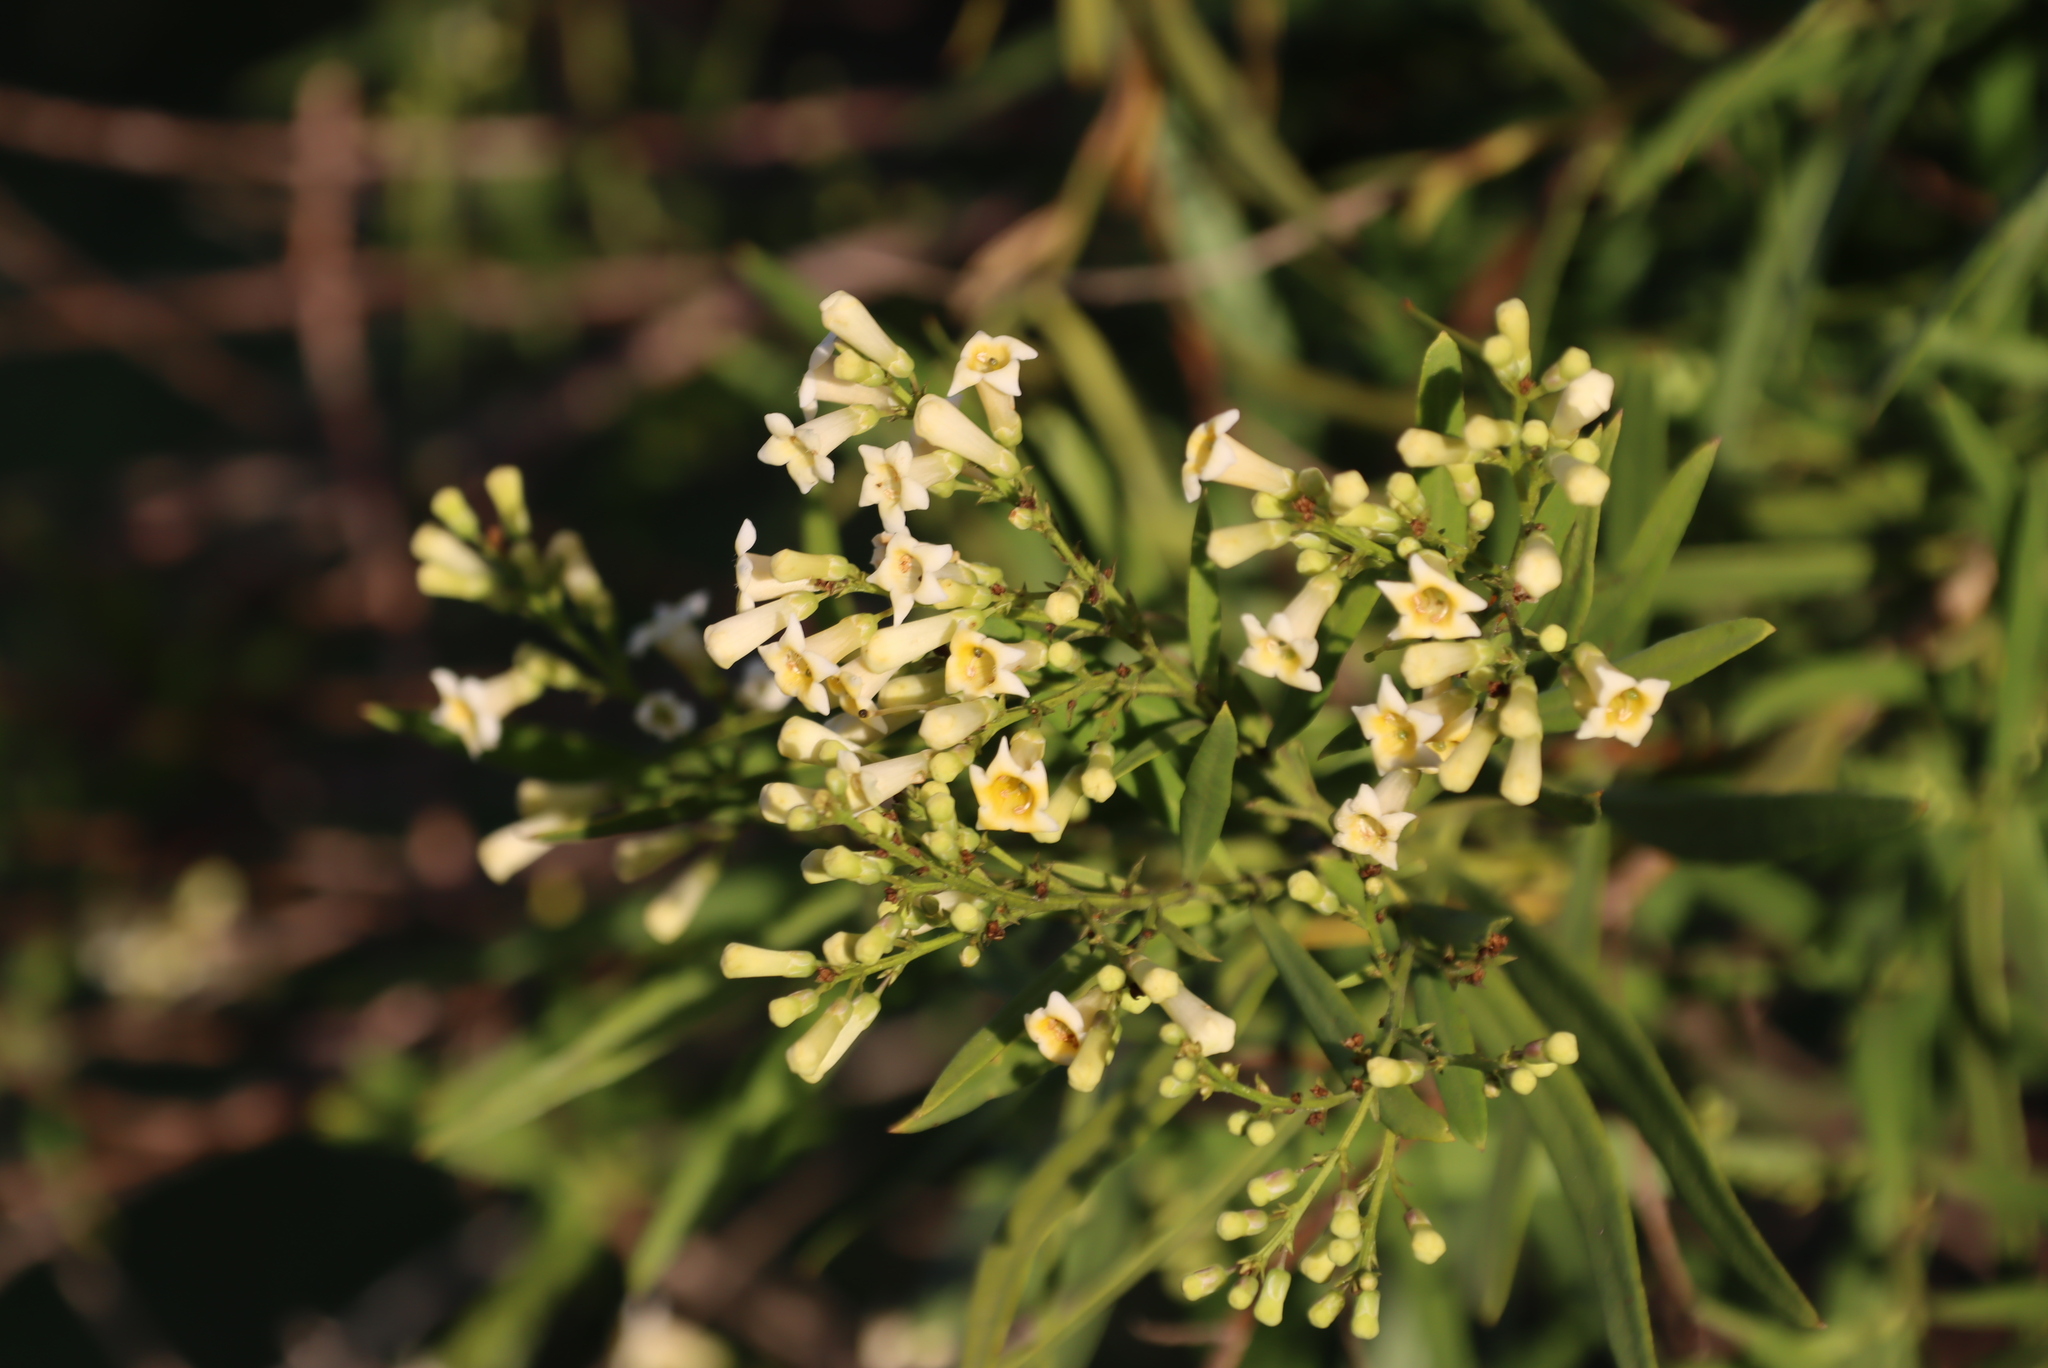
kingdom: Plantae
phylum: Tracheophyta
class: Magnoliopsida
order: Lamiales
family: Scrophulariaceae
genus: Freylinia
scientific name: Freylinia lanceolata
